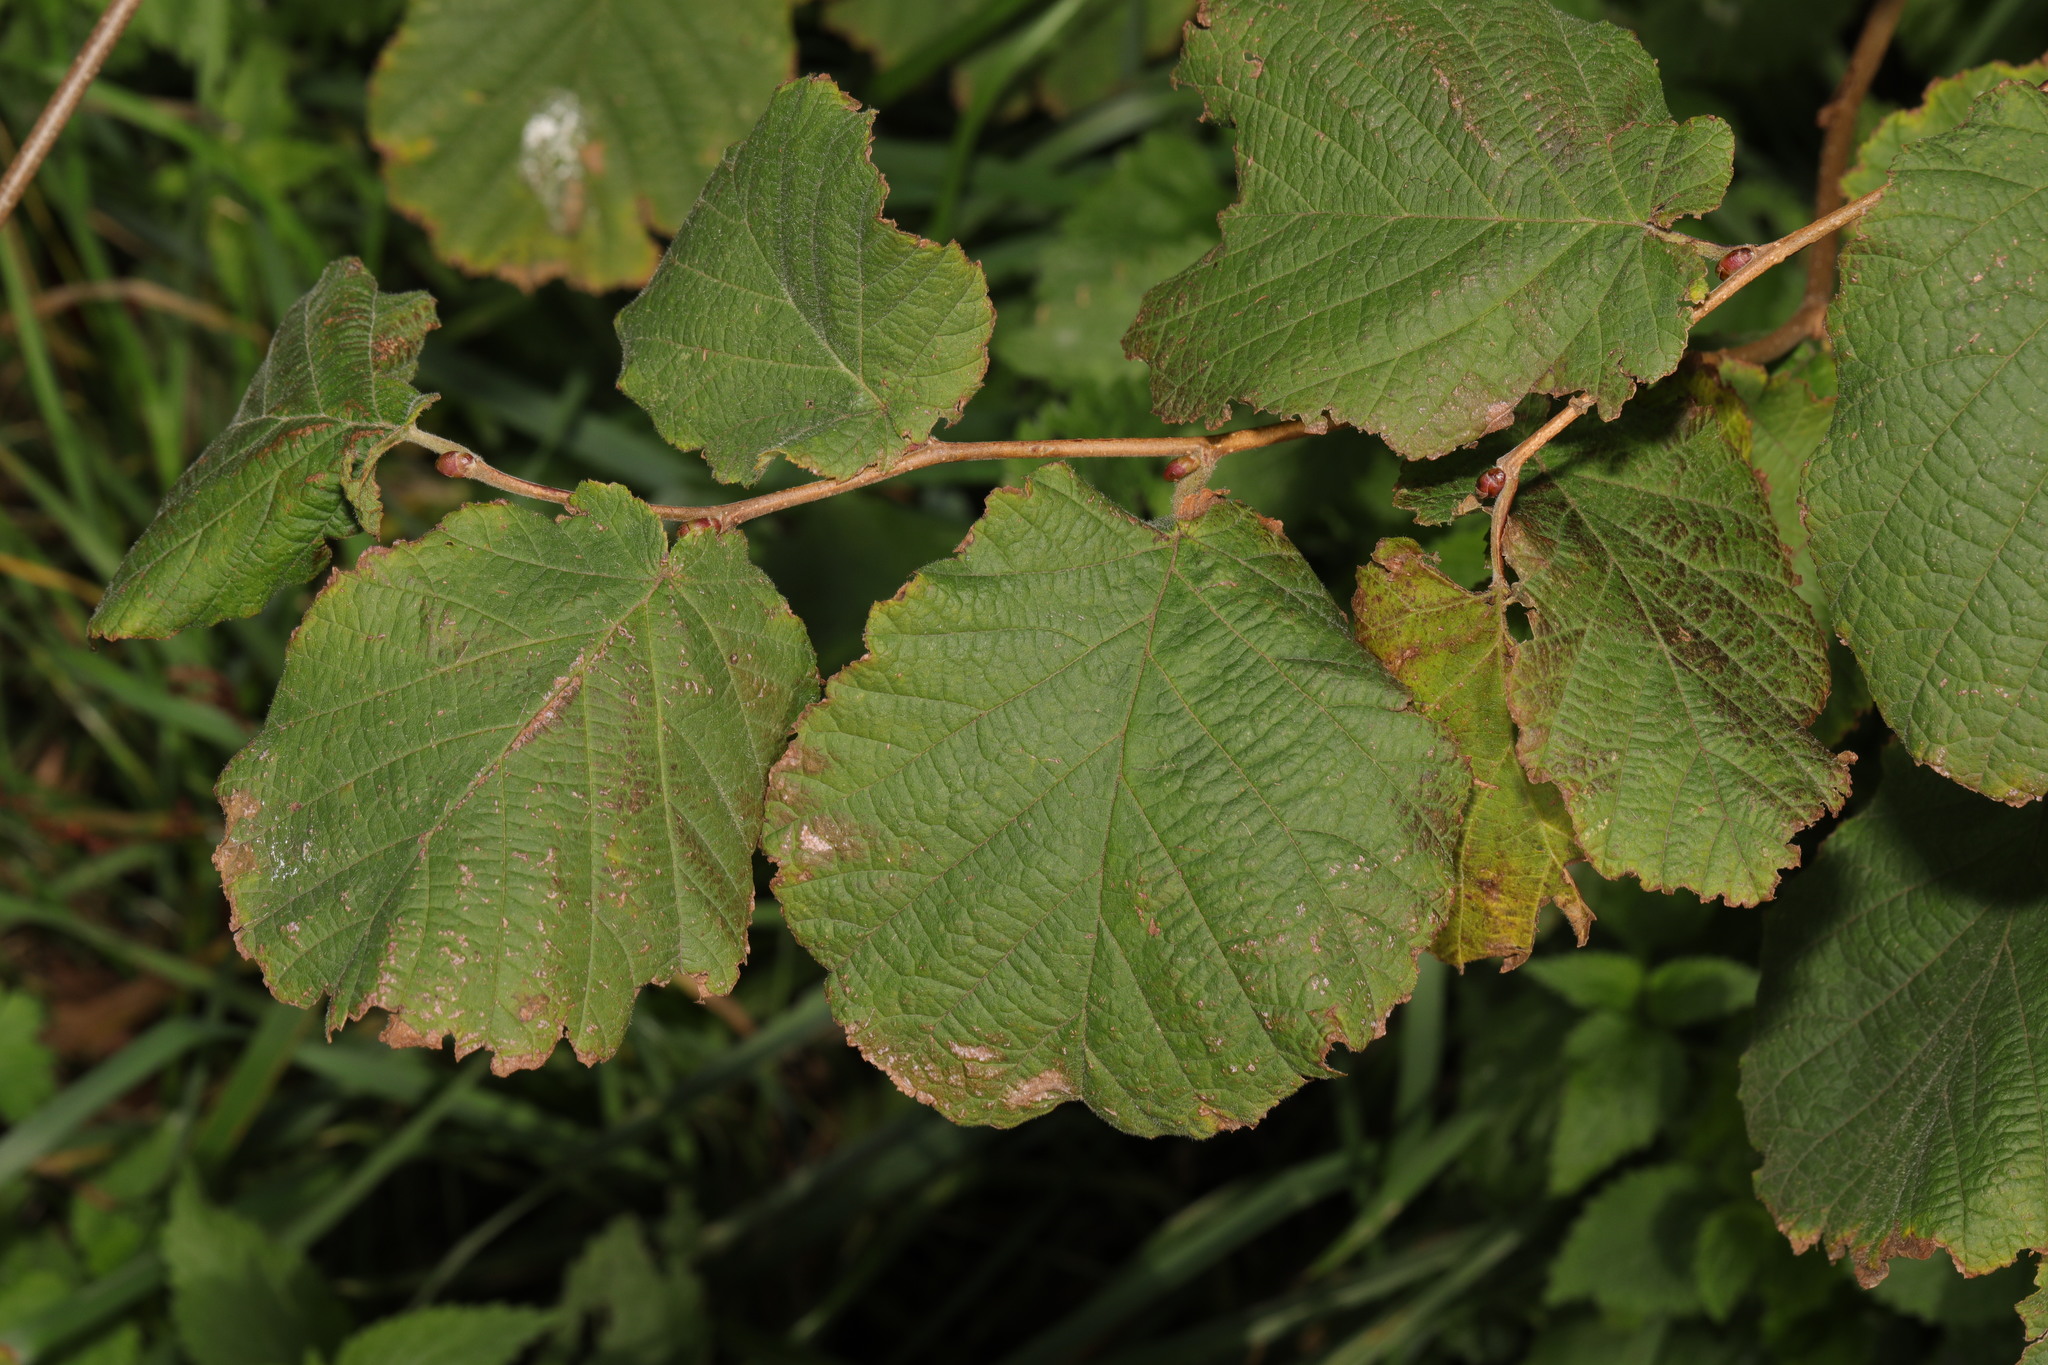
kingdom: Plantae
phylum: Tracheophyta
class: Magnoliopsida
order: Fagales
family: Betulaceae
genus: Corylus
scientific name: Corylus avellana
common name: European hazel
